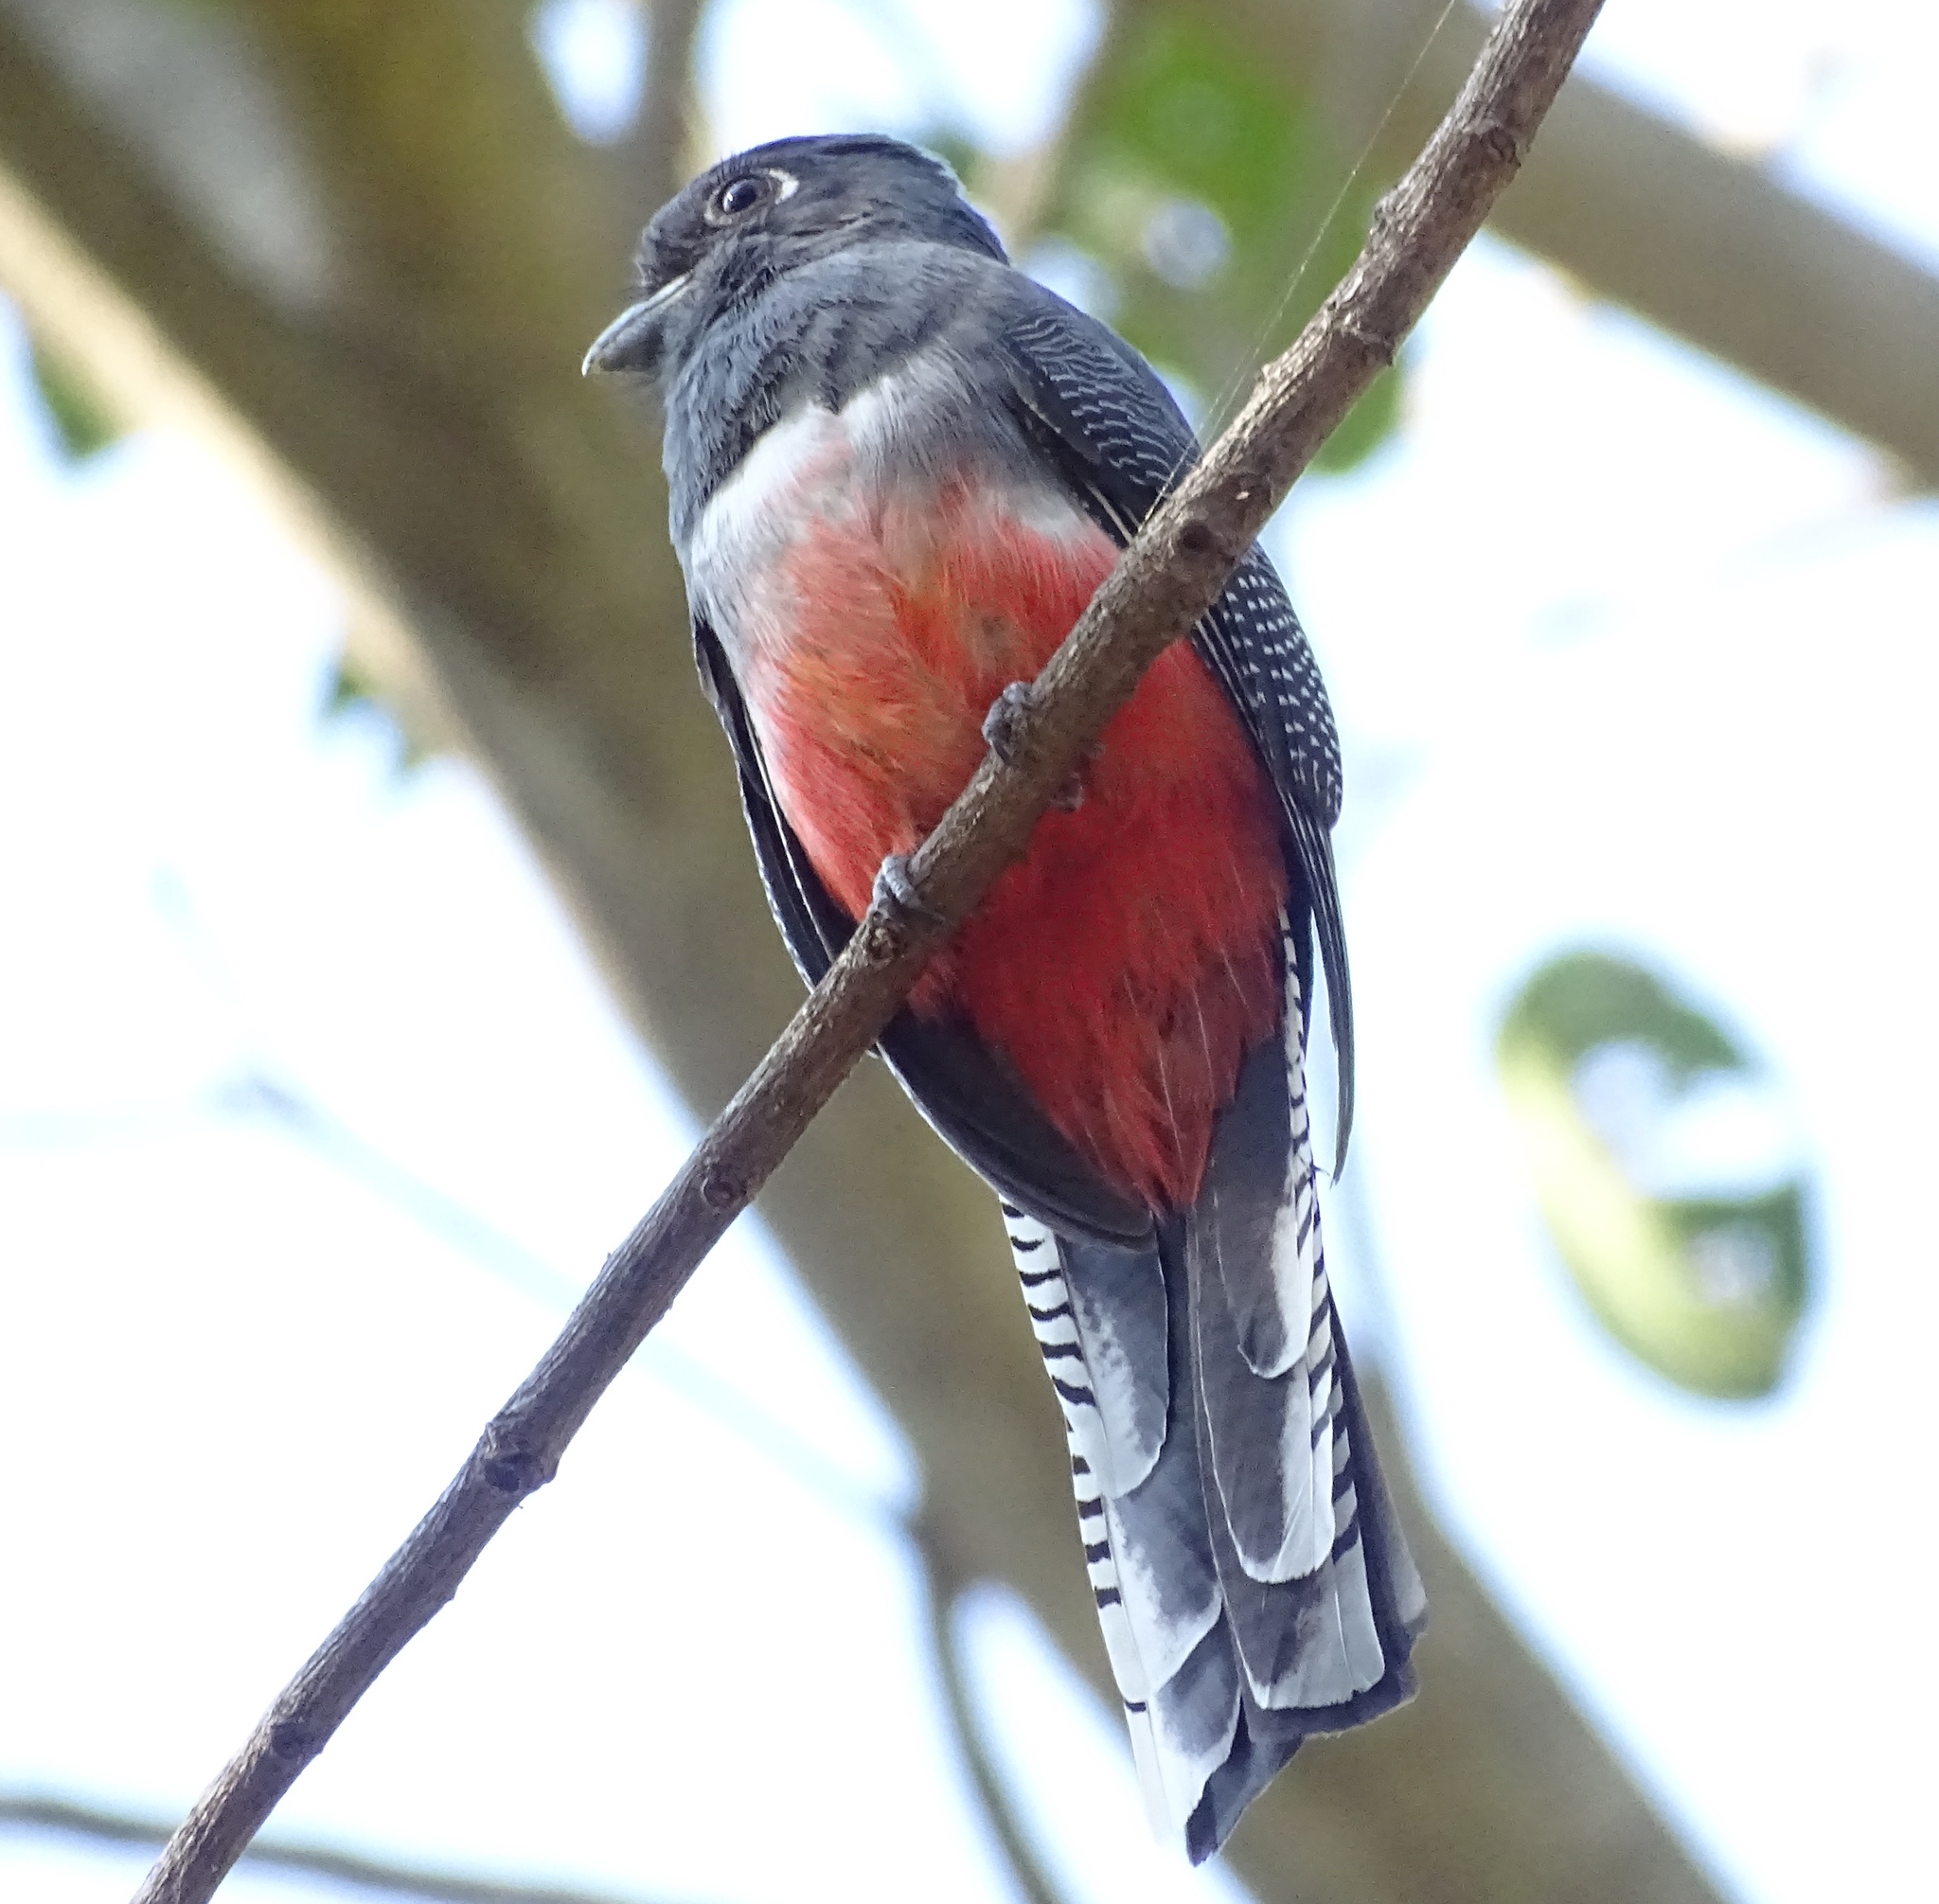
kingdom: Animalia
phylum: Chordata
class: Aves
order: Trogoniformes
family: Trogonidae
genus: Trogon
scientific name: Trogon curucui
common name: Blue-crowned trogon
